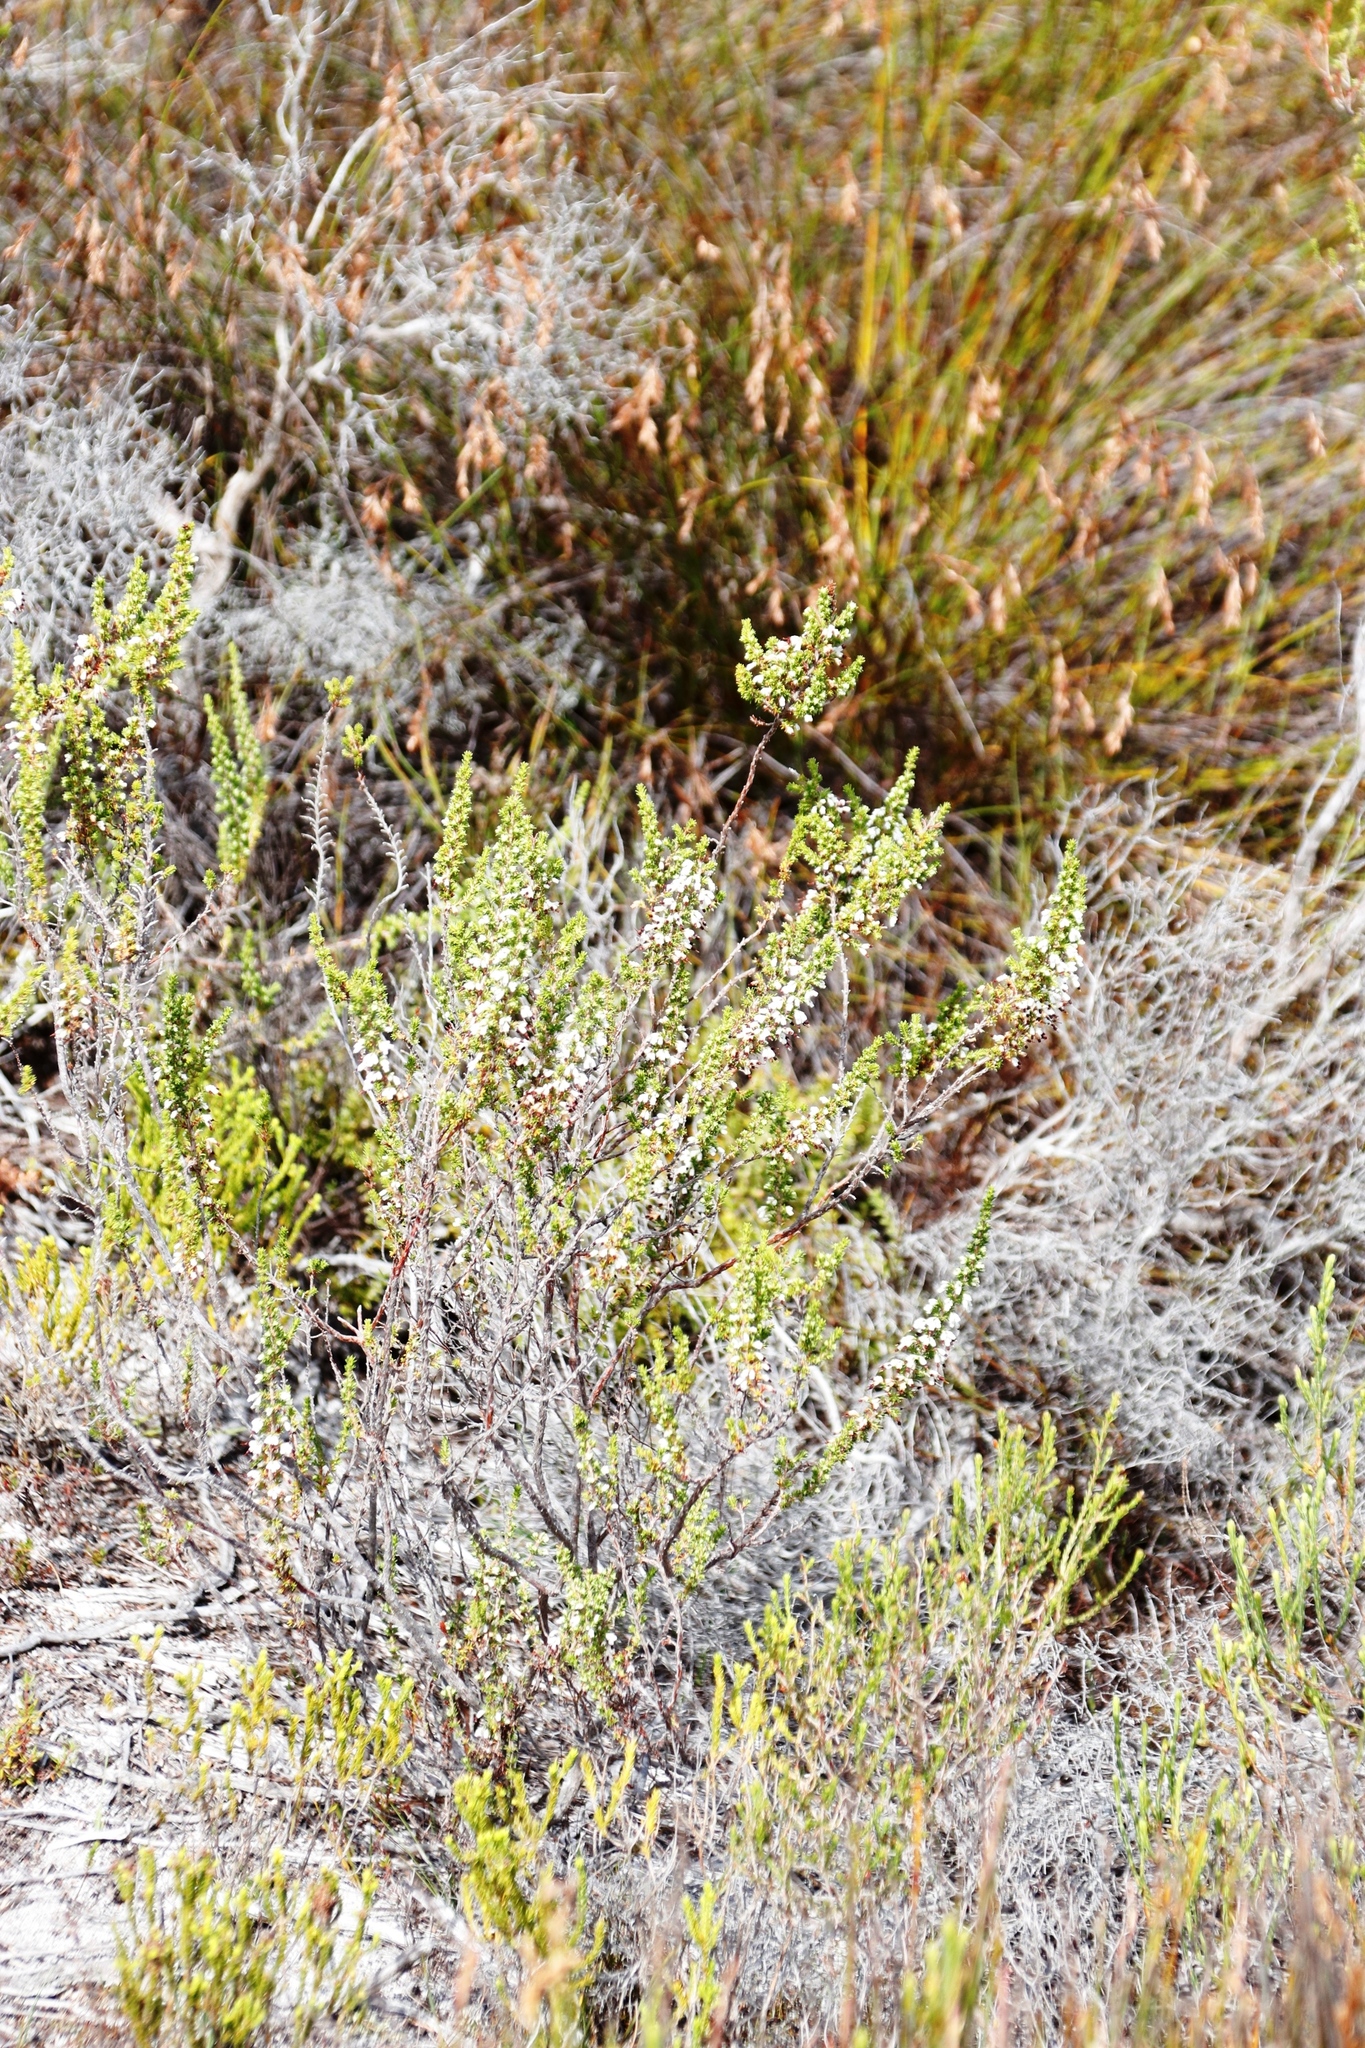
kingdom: Plantae
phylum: Tracheophyta
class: Magnoliopsida
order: Ericales
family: Ericaceae
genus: Erica
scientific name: Erica imbricata
